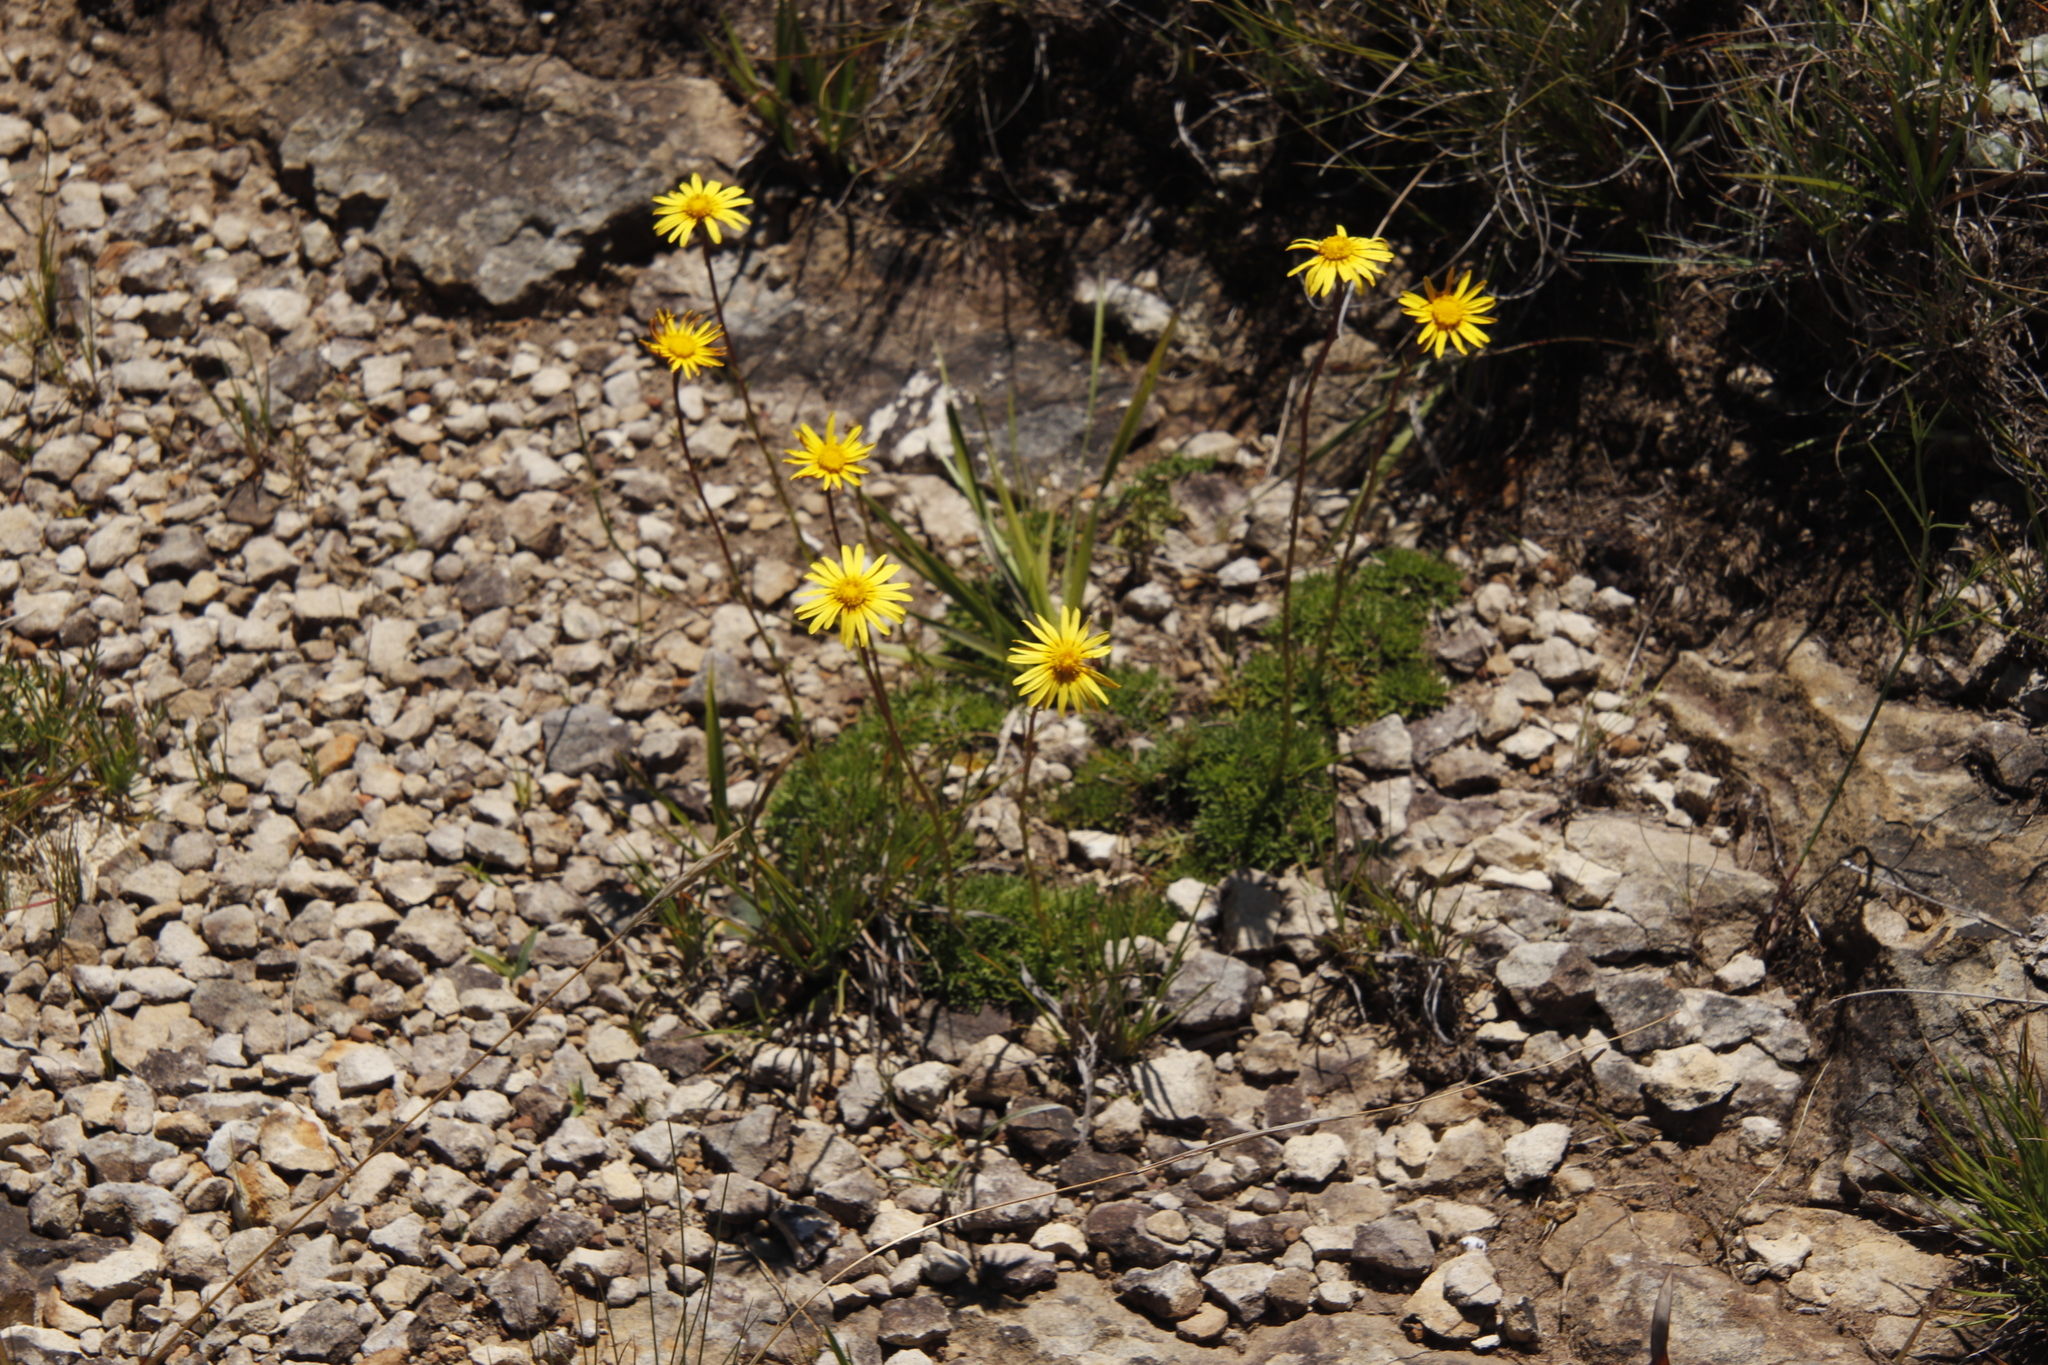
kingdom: Plantae
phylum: Tracheophyta
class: Magnoliopsida
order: Asterales
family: Asteraceae
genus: Ursinia
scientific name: Ursinia montana
